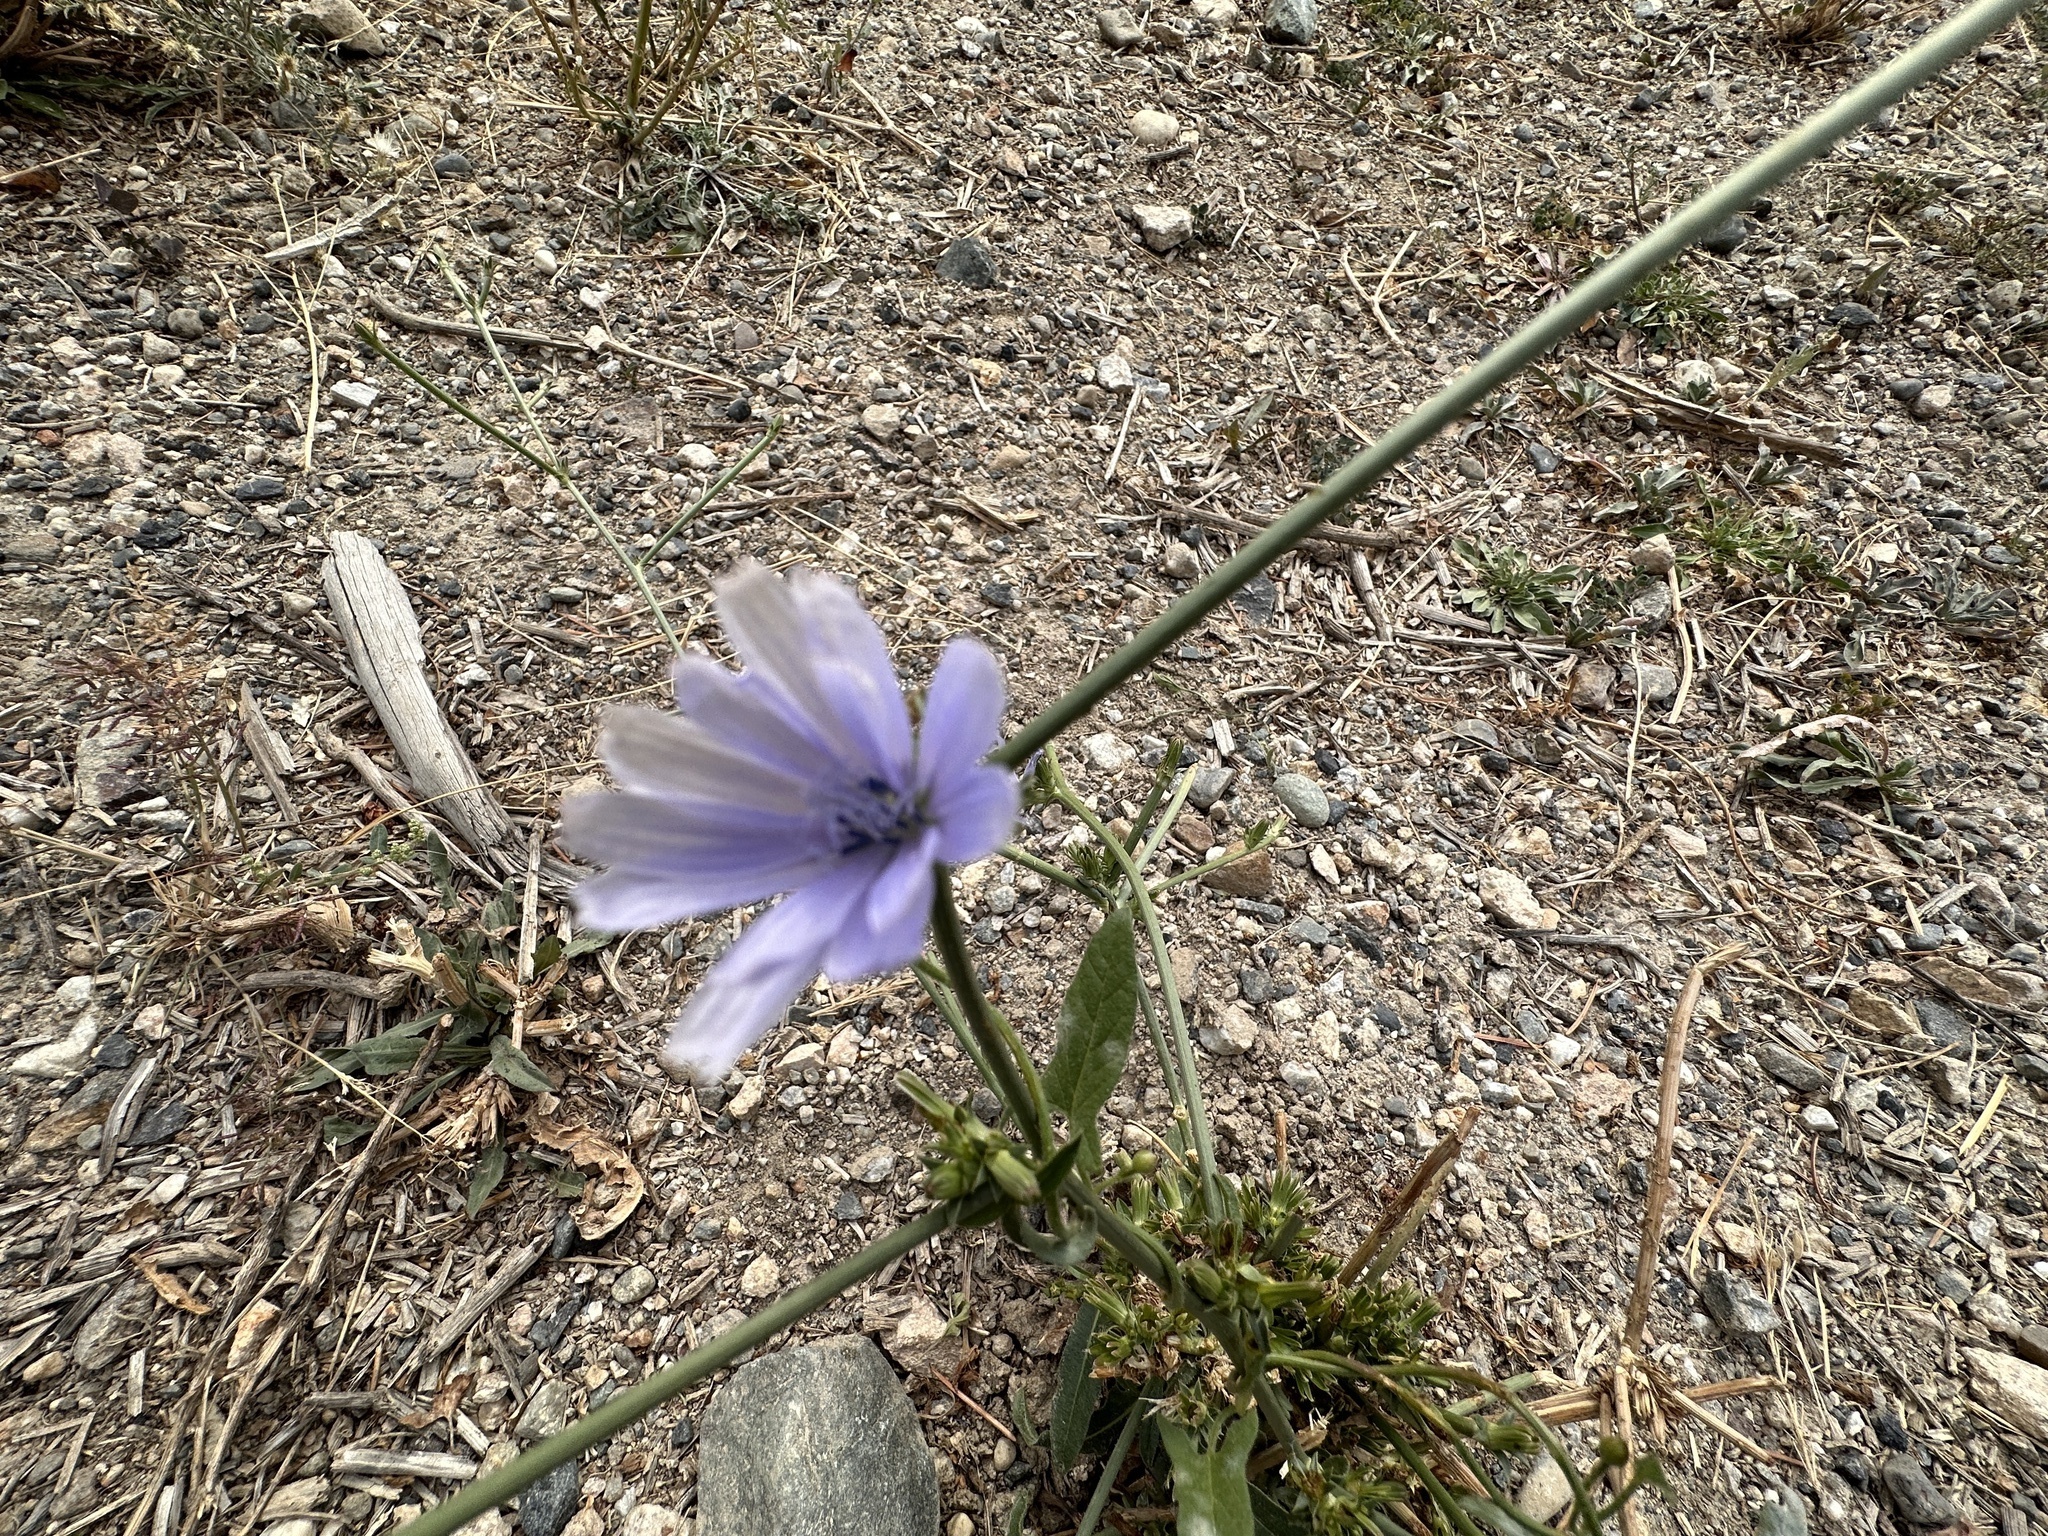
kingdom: Plantae
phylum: Tracheophyta
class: Magnoliopsida
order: Asterales
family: Asteraceae
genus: Cichorium
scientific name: Cichorium intybus
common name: Chicory
